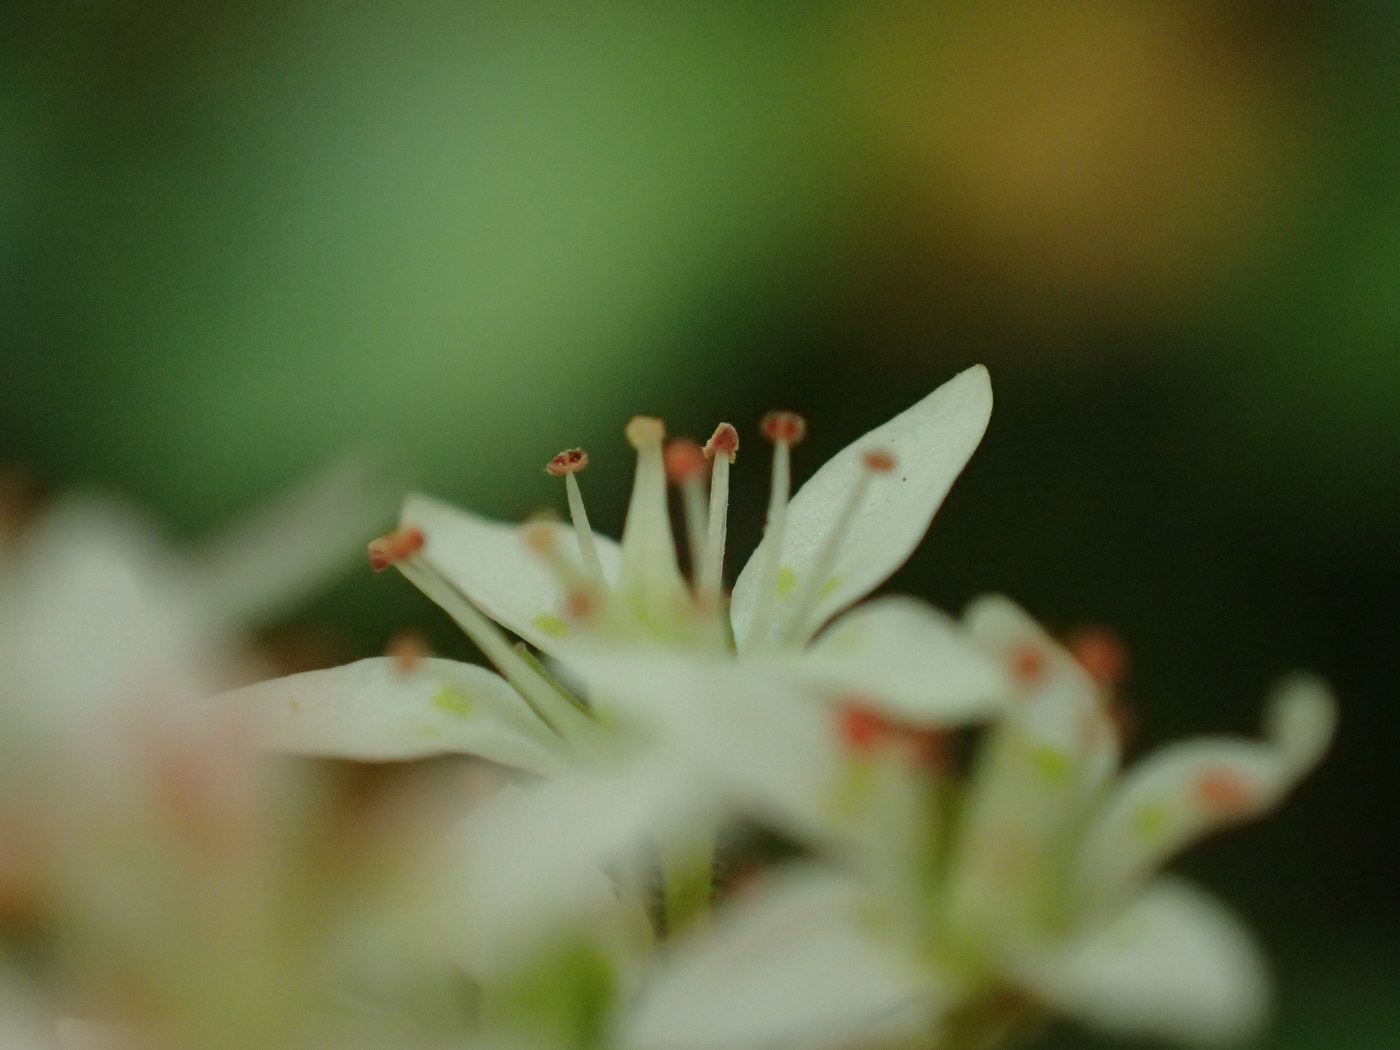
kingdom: Plantae
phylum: Tracheophyta
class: Magnoliopsida
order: Saxifragales
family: Saxifragaceae
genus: Micranthes
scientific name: Micranthes careyana
